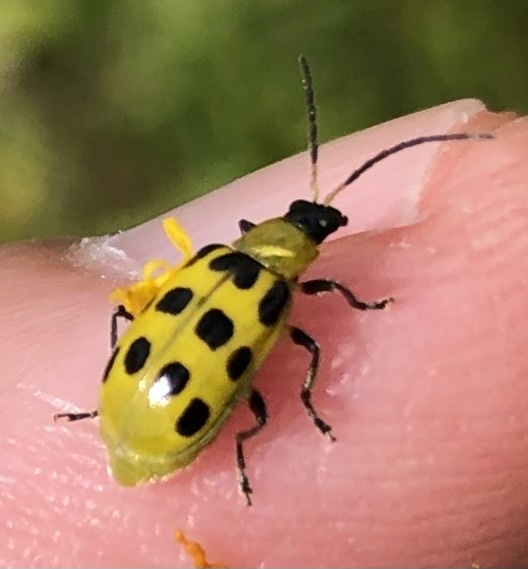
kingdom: Animalia
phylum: Arthropoda
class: Insecta
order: Coleoptera
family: Chrysomelidae
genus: Diabrotica
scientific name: Diabrotica undecimpunctata
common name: Spotted cucumber beetle
